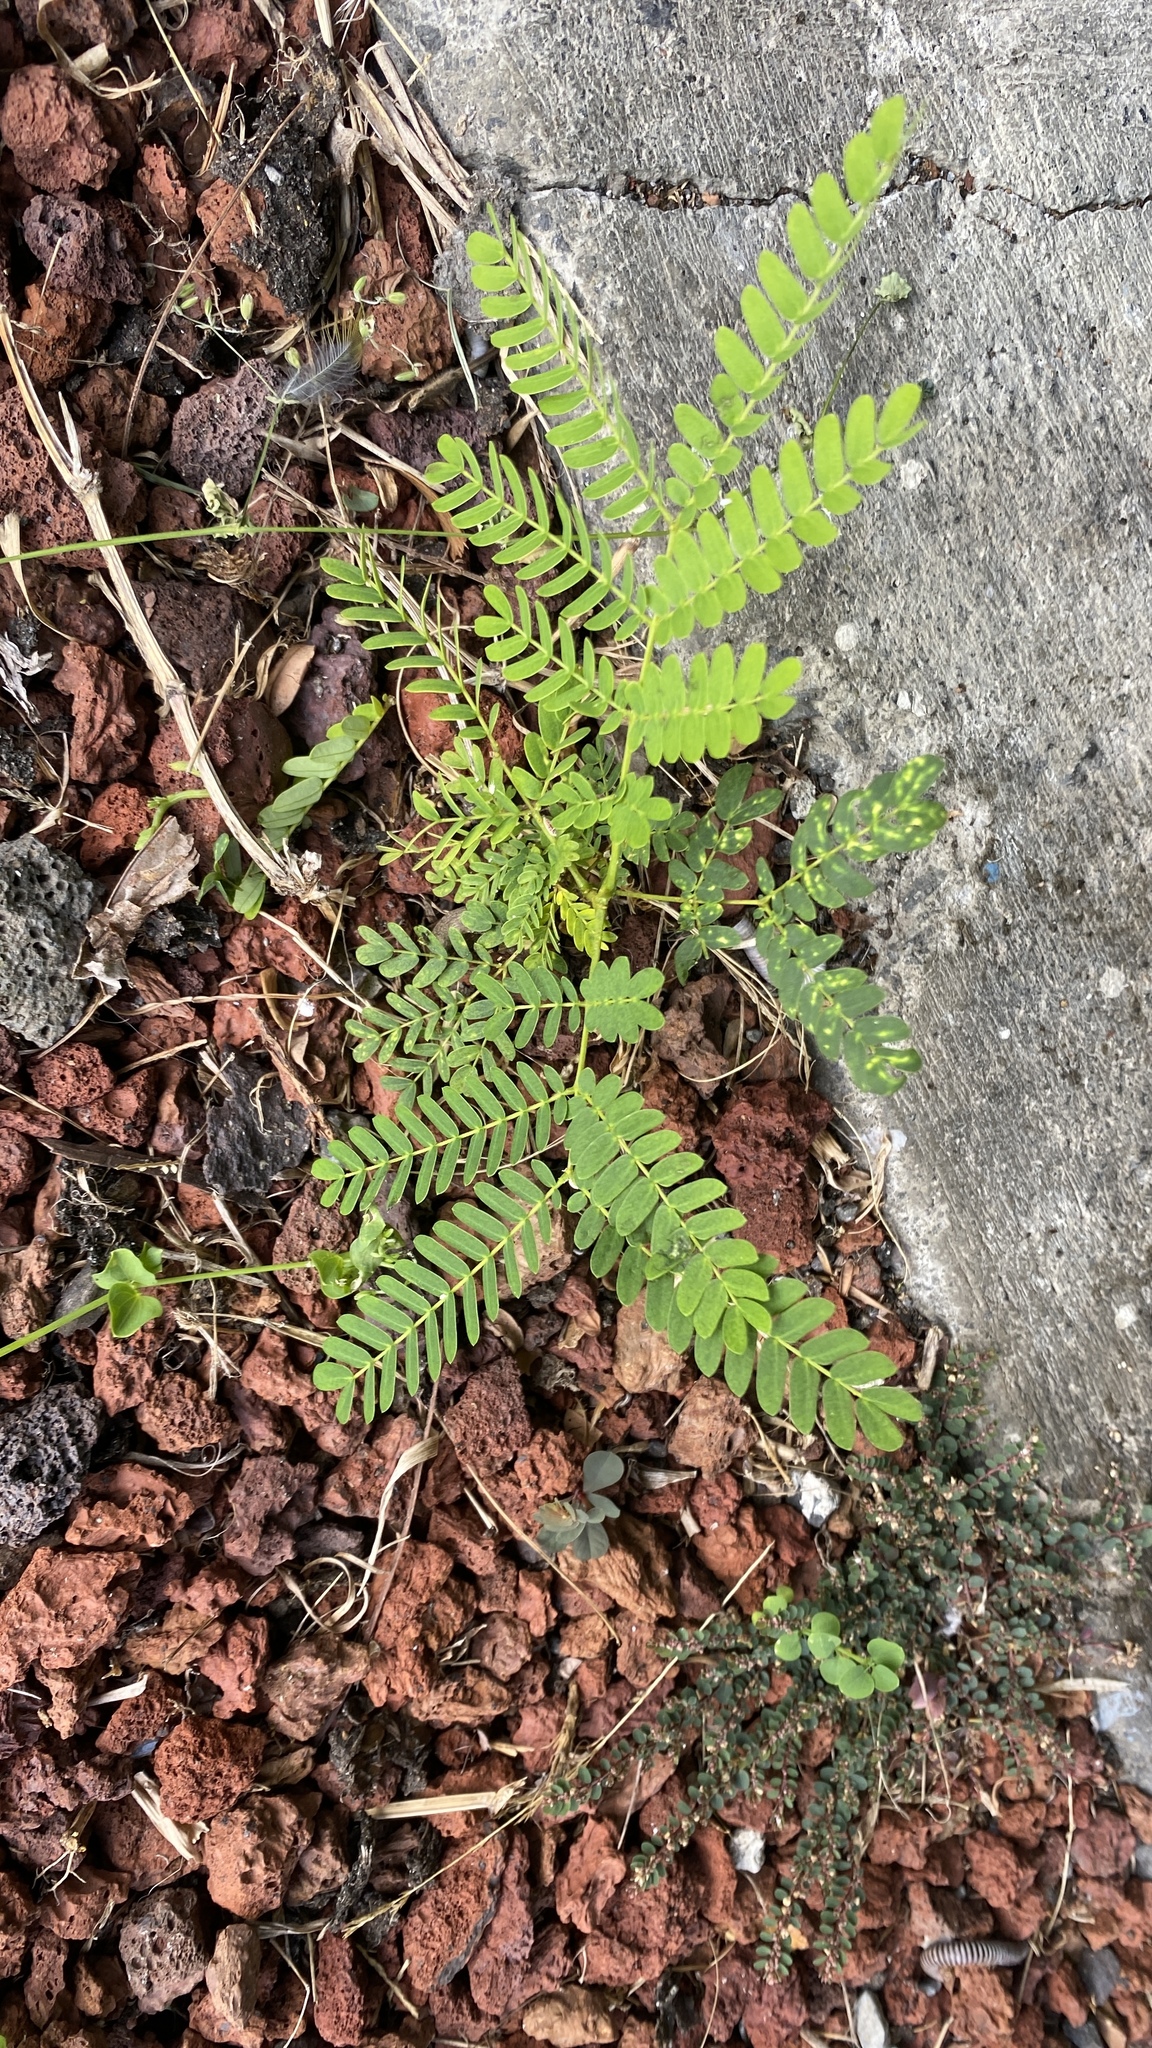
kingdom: Plantae
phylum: Tracheophyta
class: Magnoliopsida
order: Fabales
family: Fabaceae
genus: Leucaena
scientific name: Leucaena leucocephala
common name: White leadtree
